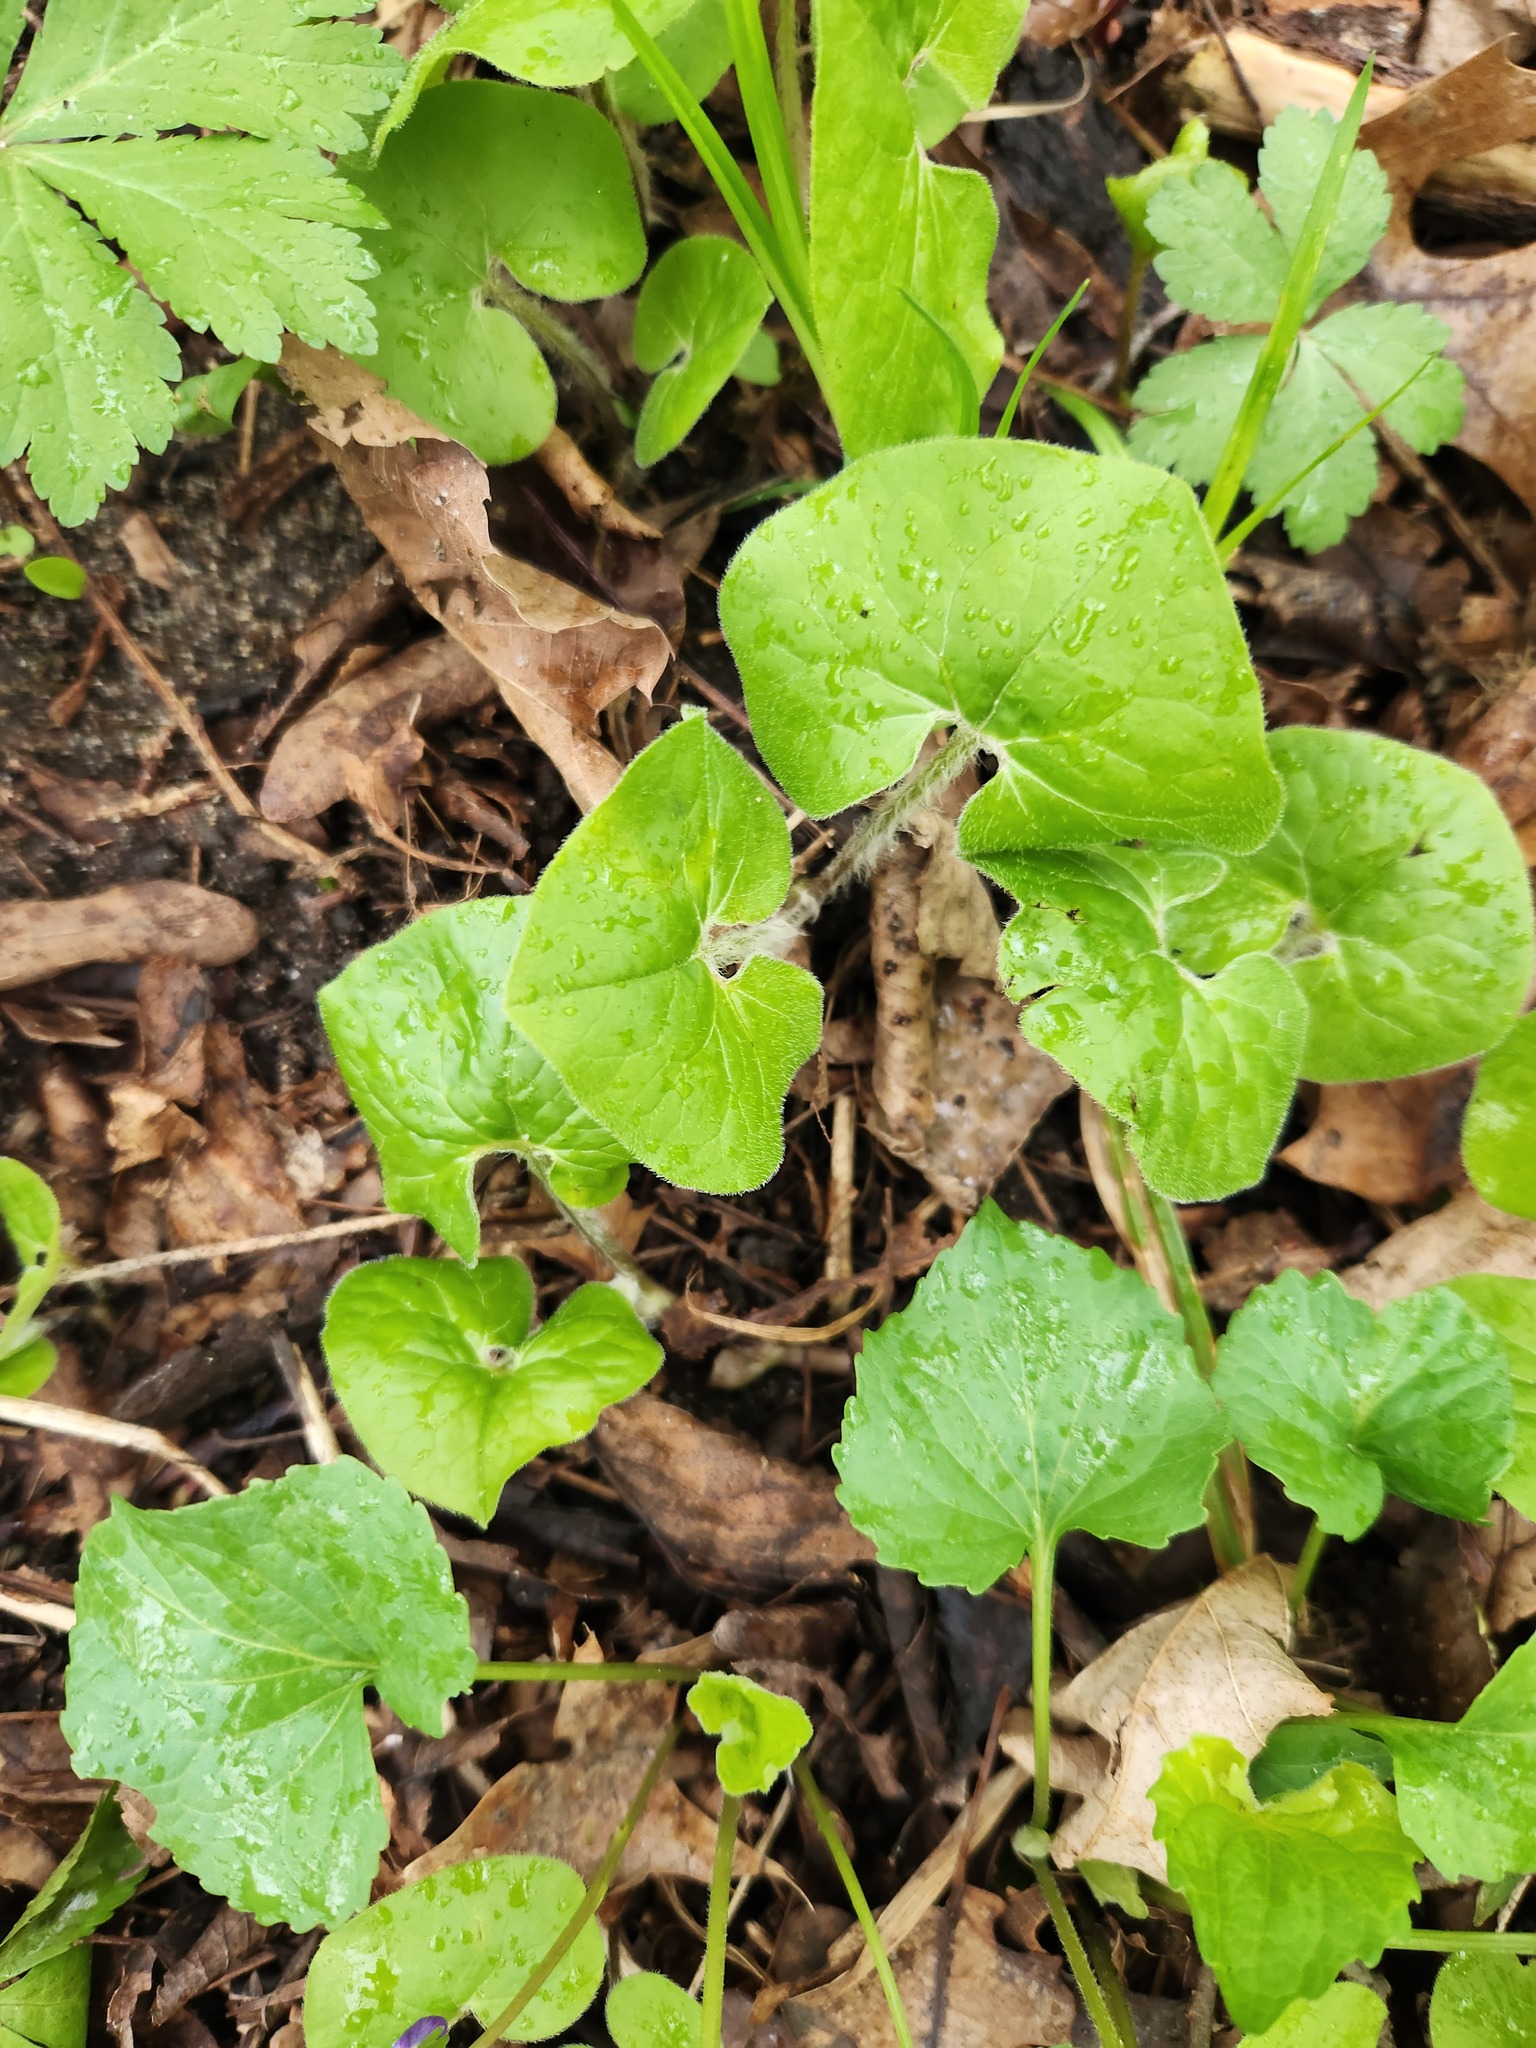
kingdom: Plantae
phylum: Tracheophyta
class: Magnoliopsida
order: Piperales
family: Aristolochiaceae
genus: Asarum
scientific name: Asarum canadense
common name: Wild ginger
